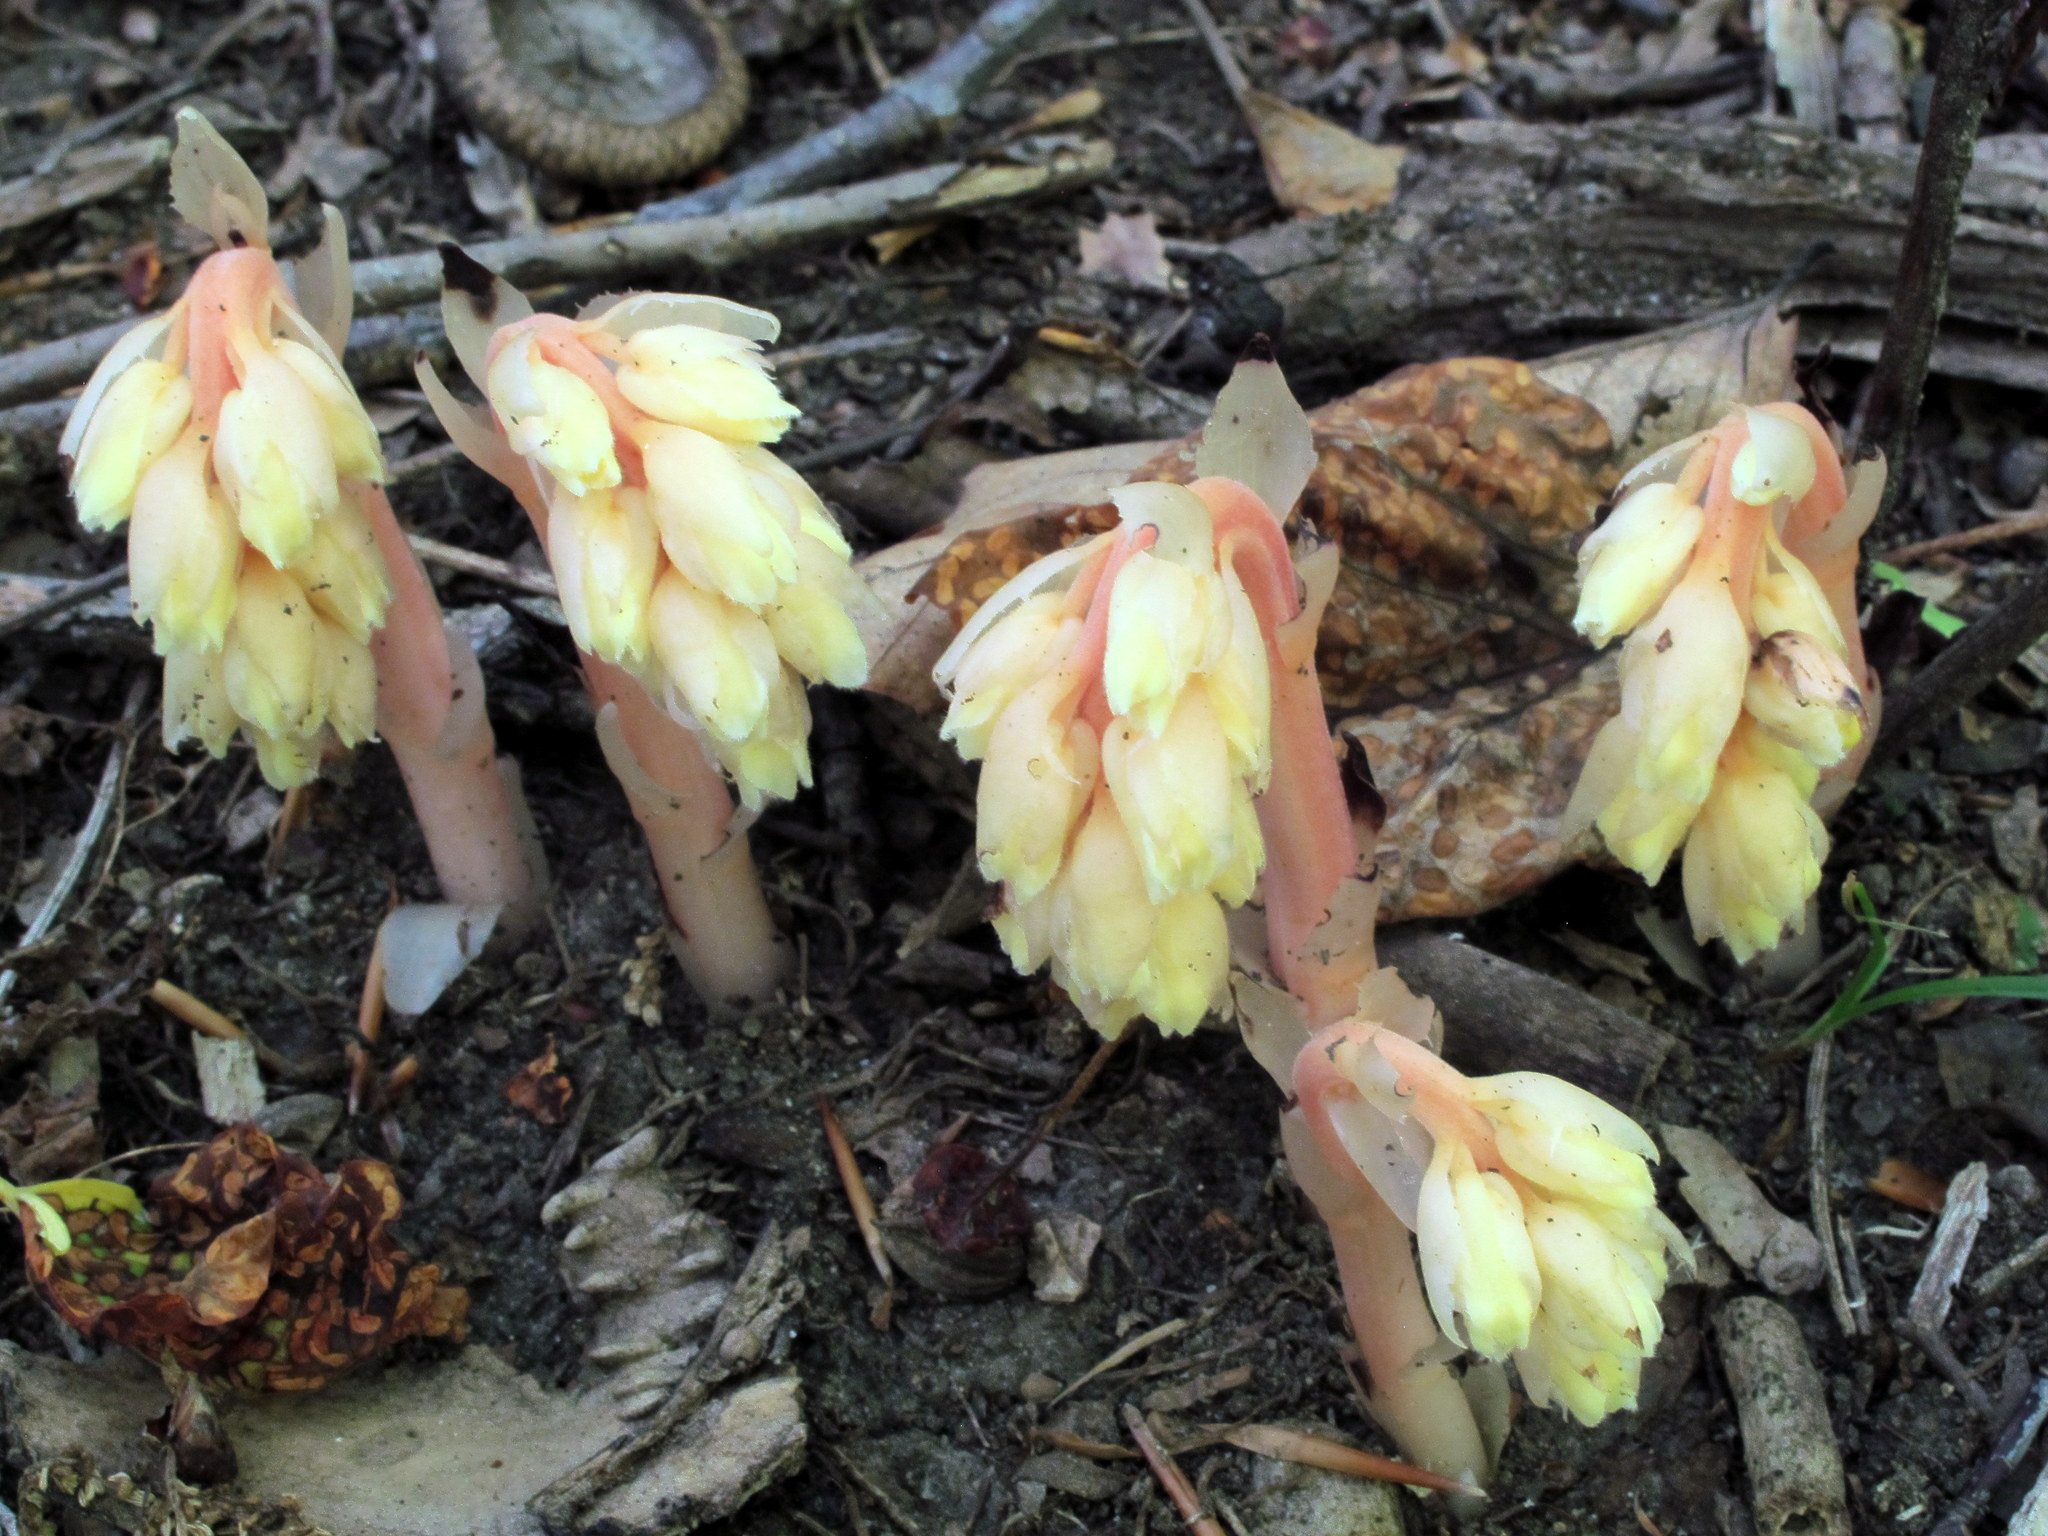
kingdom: Plantae
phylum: Tracheophyta
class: Magnoliopsida
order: Ericales
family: Ericaceae
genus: Hypopitys
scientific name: Hypopitys monotropa
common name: Yellow bird's-nest
